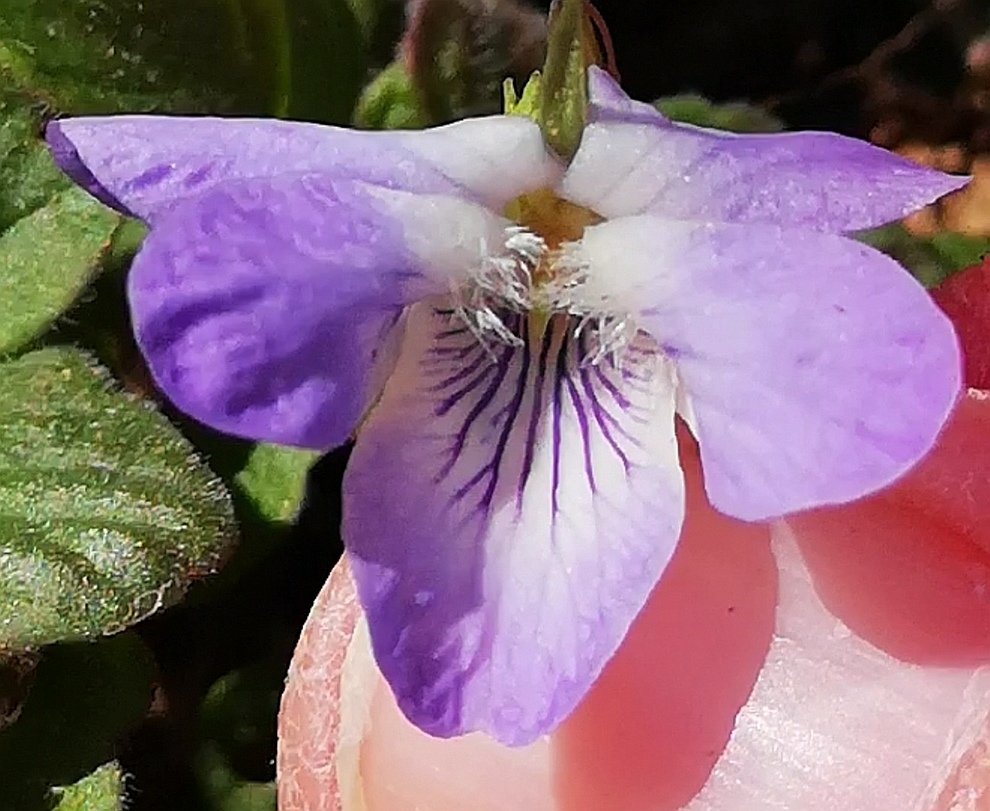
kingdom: Plantae
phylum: Tracheophyta
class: Magnoliopsida
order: Malpighiales
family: Violaceae
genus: Viola
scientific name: Viola riviniana
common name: Common dog-violet
